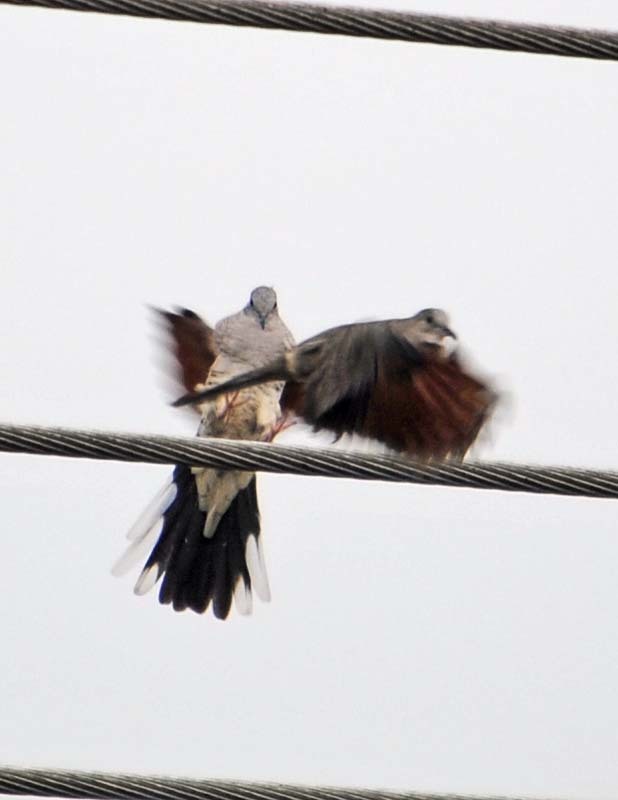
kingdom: Animalia
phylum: Chordata
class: Aves
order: Columbiformes
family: Columbidae
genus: Columbina
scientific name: Columbina inca
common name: Inca dove
